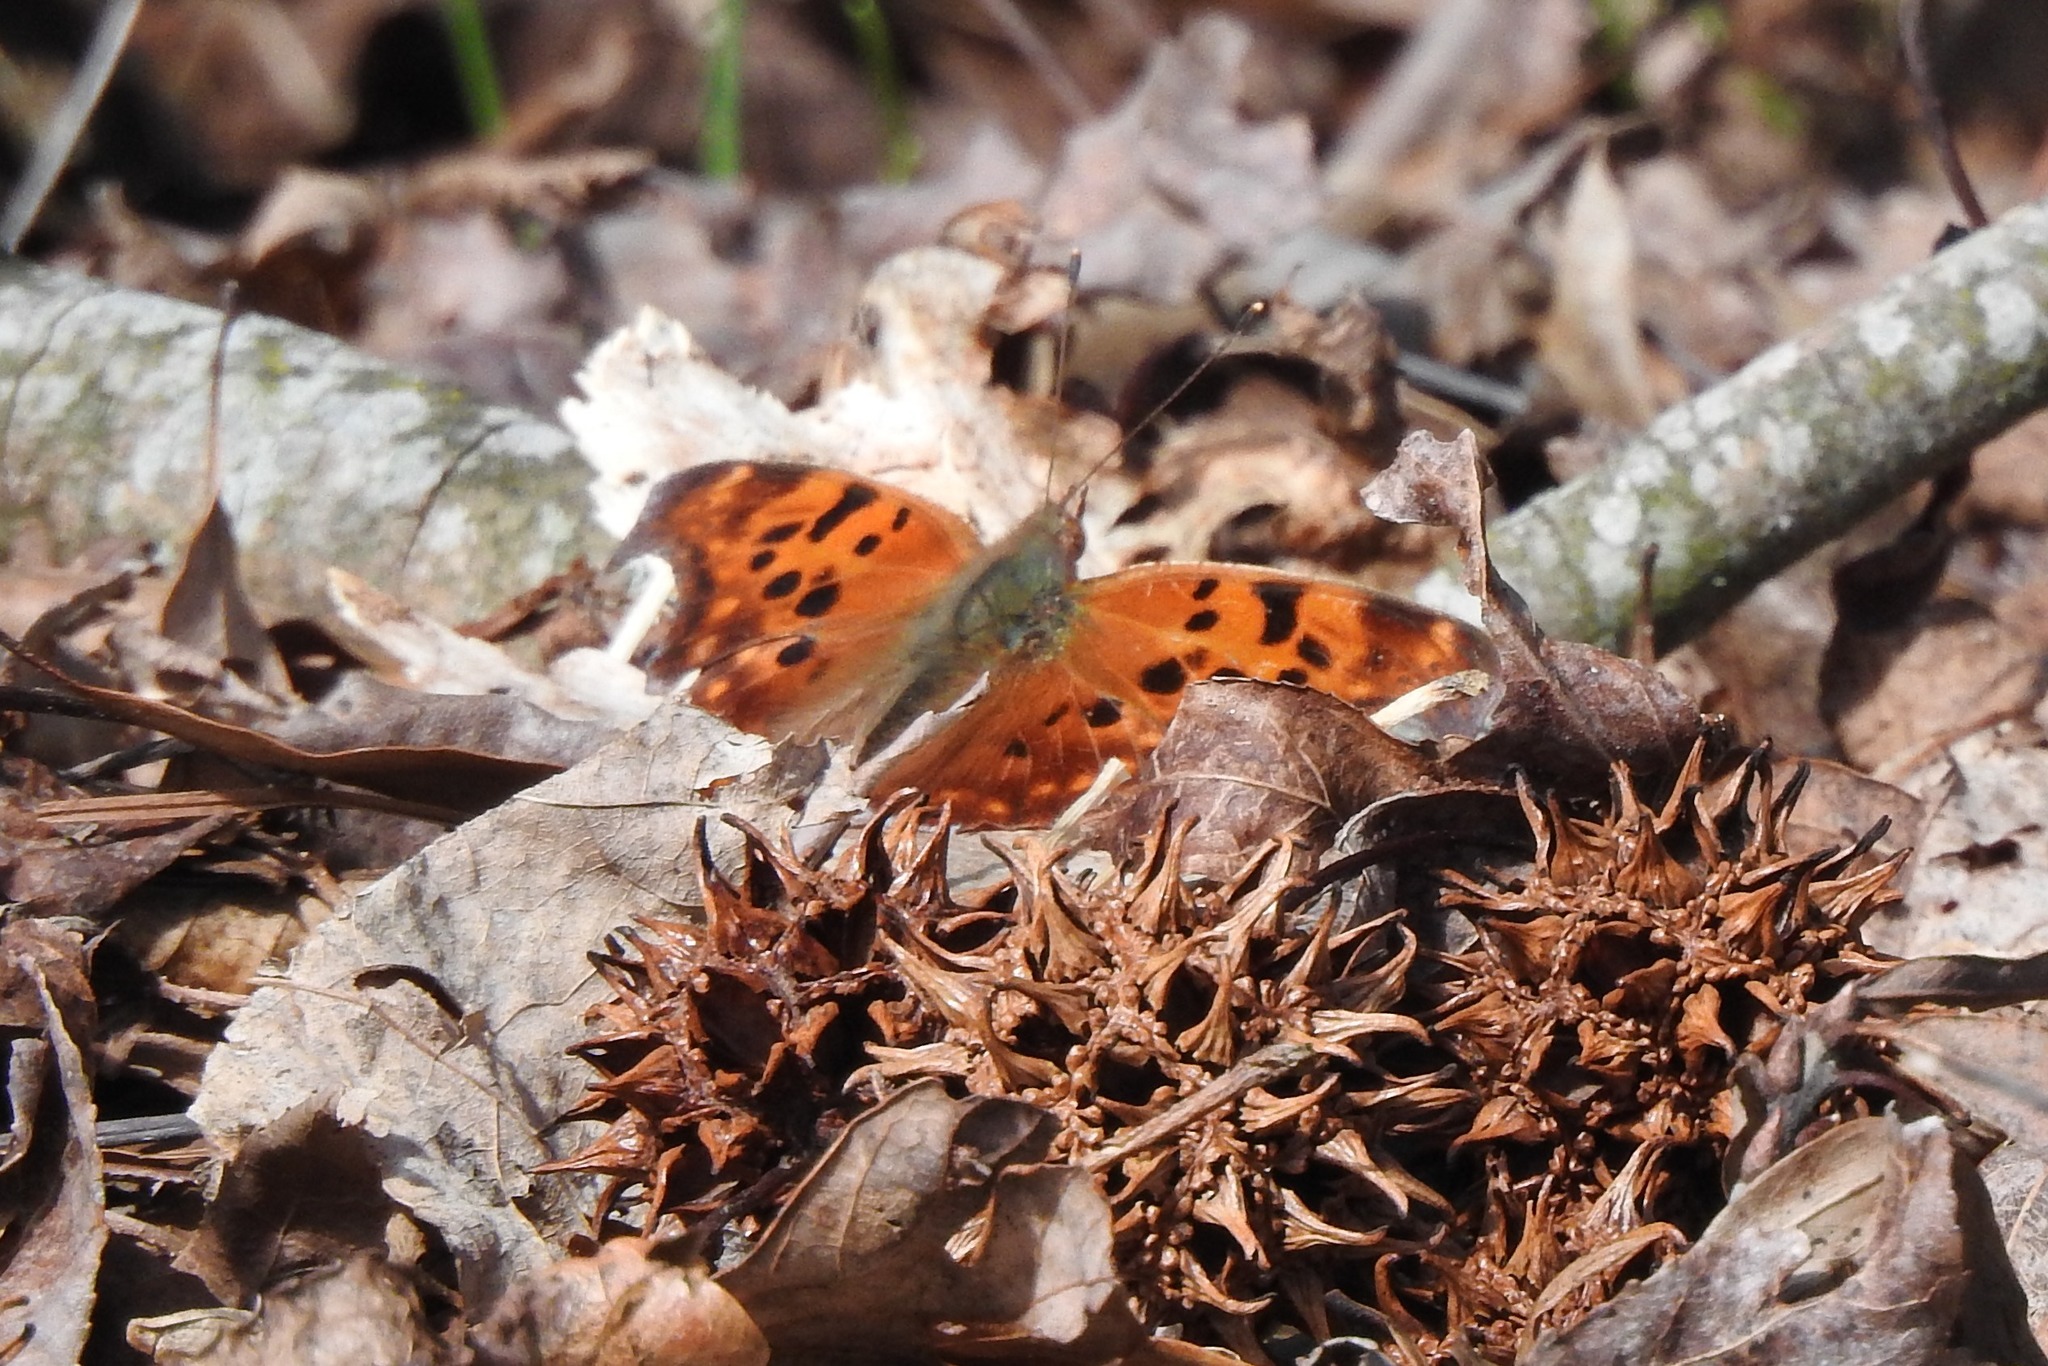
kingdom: Animalia
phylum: Arthropoda
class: Insecta
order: Lepidoptera
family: Nymphalidae
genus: Polygonia
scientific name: Polygonia interrogationis
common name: Question mark
